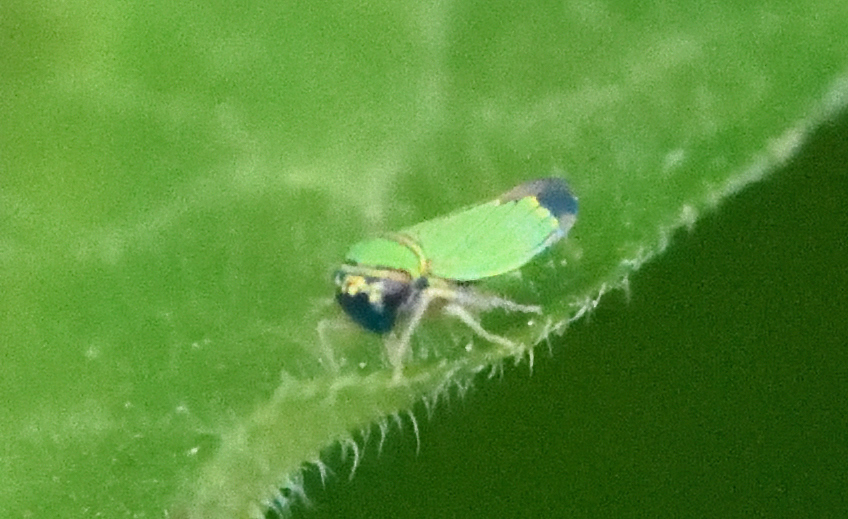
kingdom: Animalia
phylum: Arthropoda
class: Insecta
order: Hemiptera
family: Cicadellidae
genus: Tylozygus
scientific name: Tylozygus geometricus
